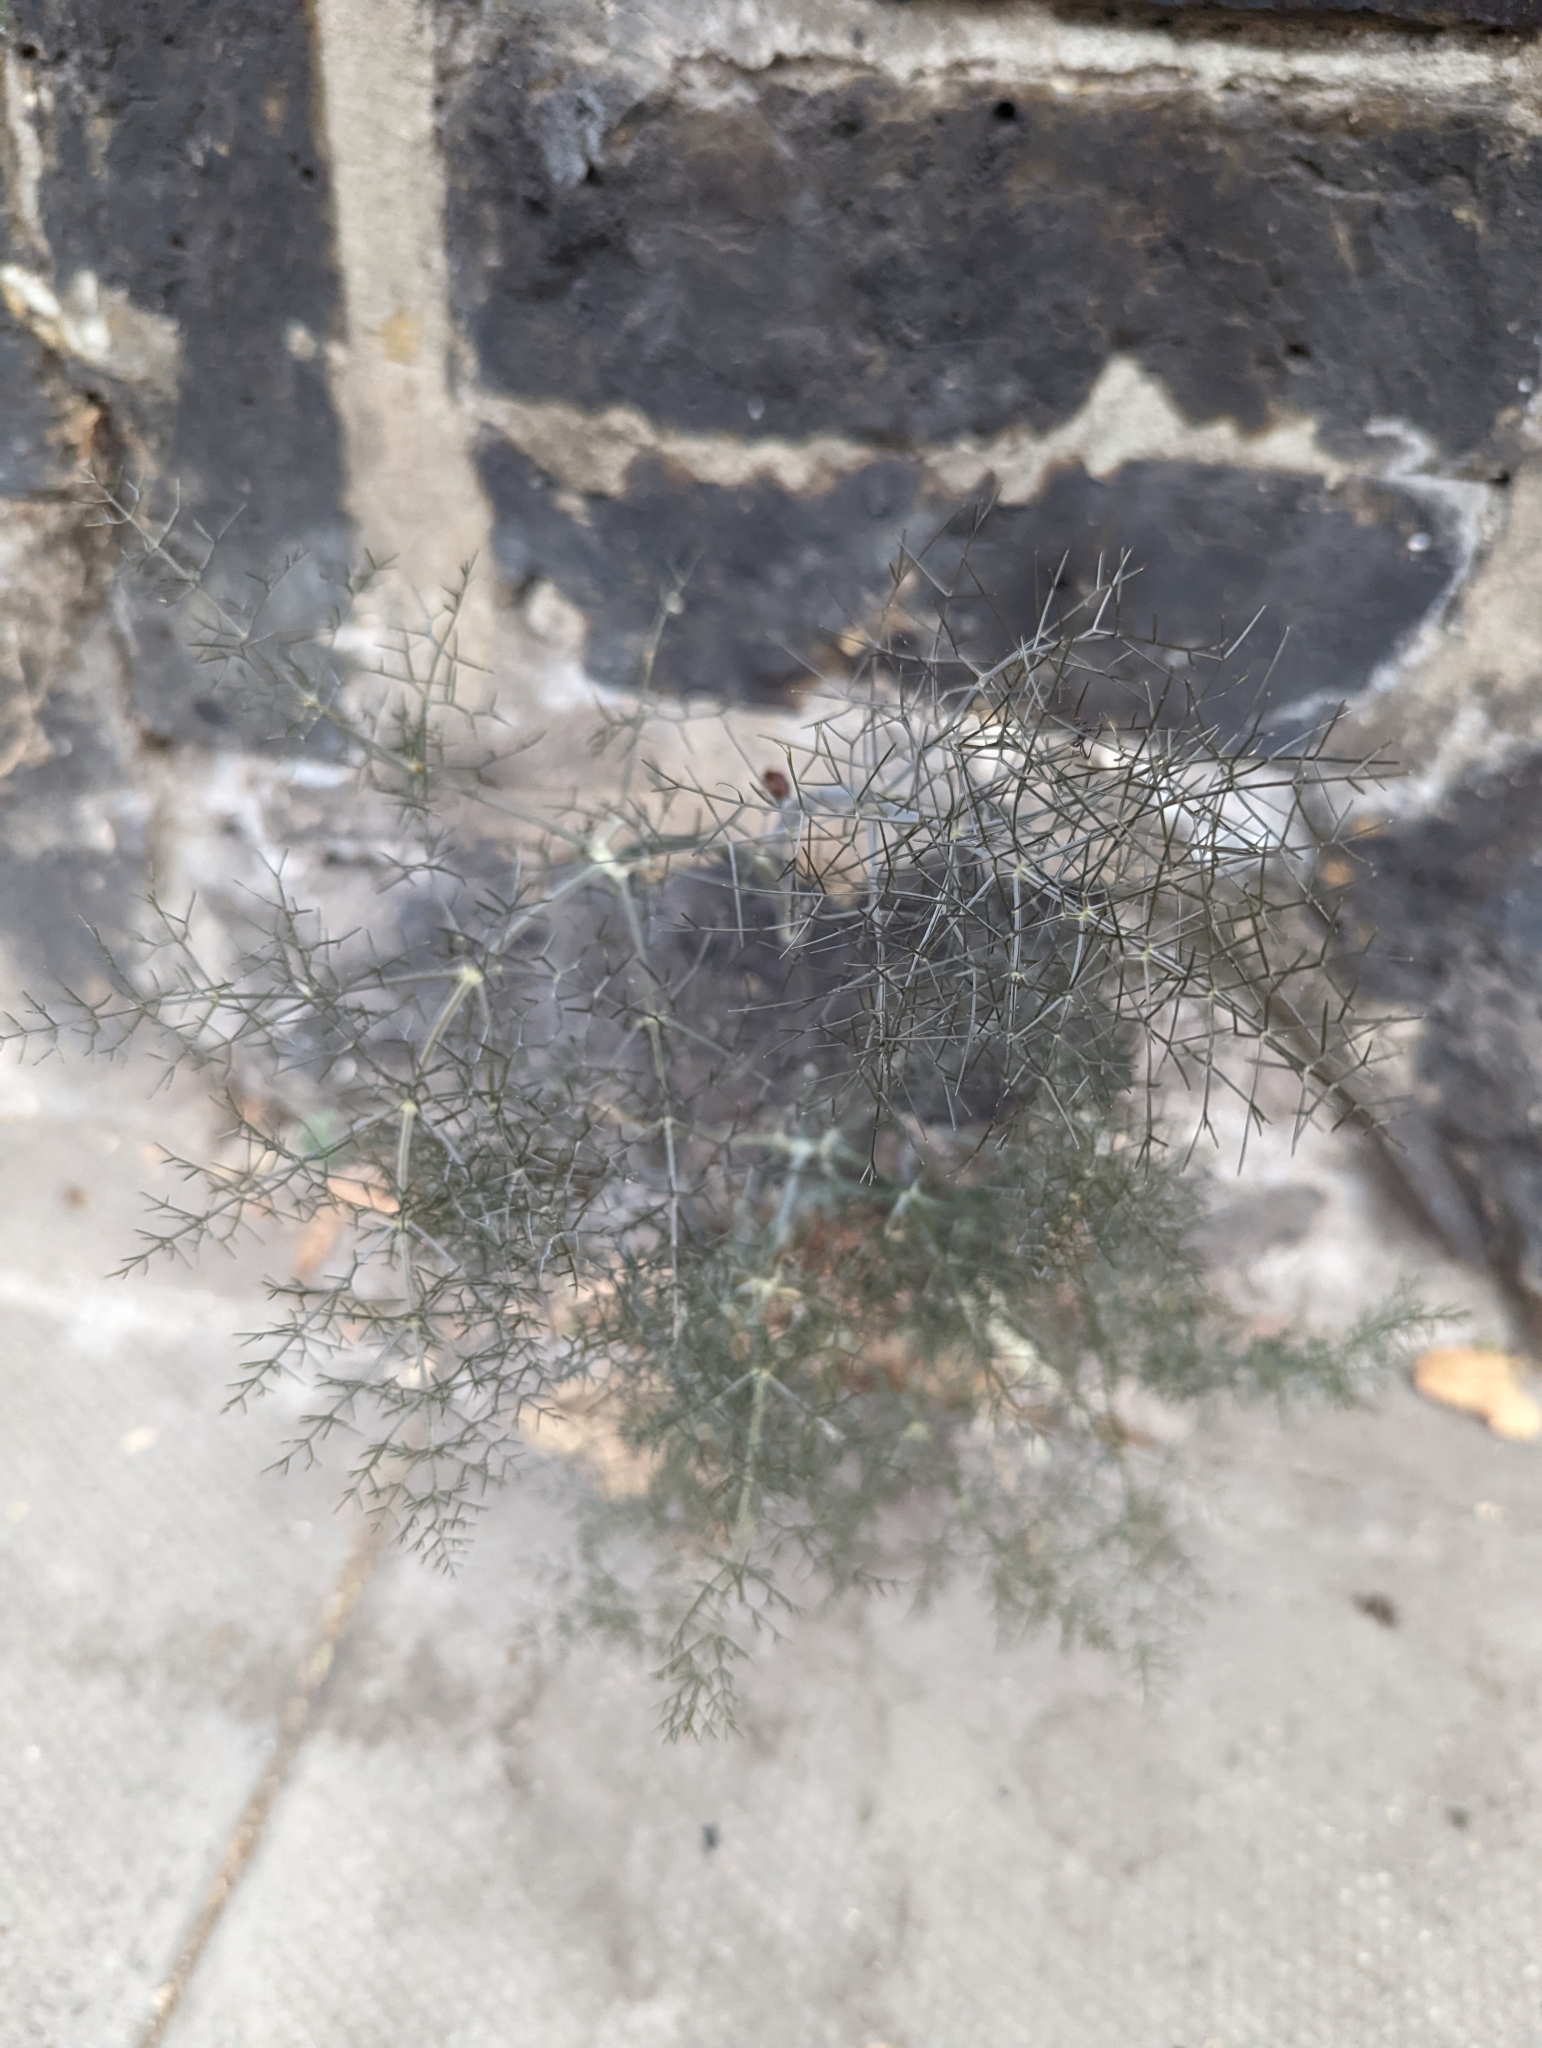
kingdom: Plantae
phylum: Tracheophyta
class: Magnoliopsida
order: Apiales
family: Apiaceae
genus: Foeniculum
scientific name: Foeniculum vulgare
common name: Fennel
